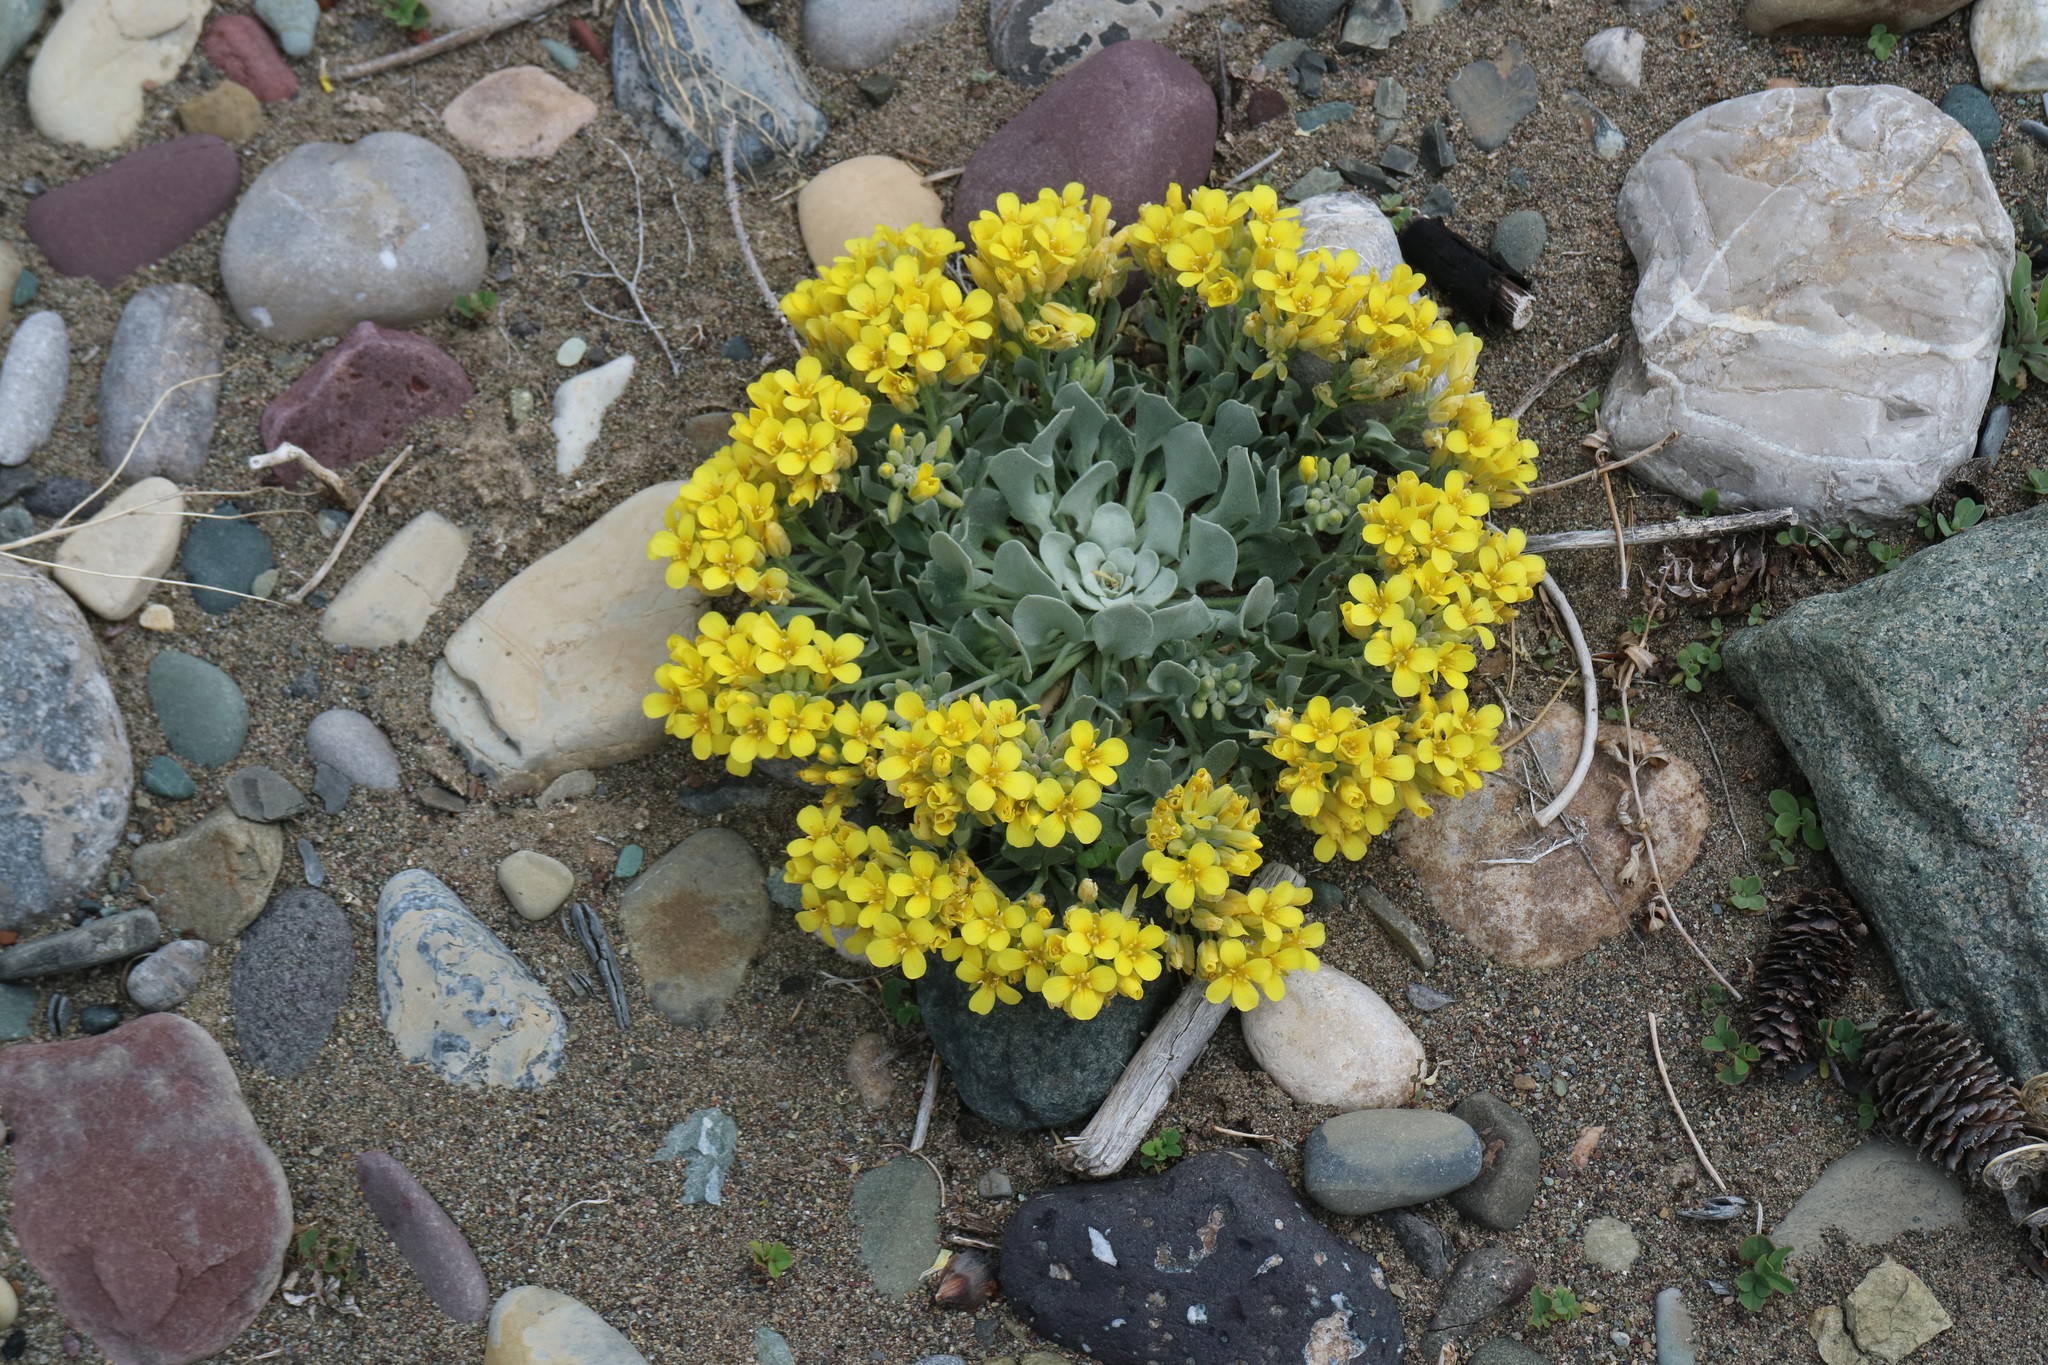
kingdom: Plantae
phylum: Tracheophyta
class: Magnoliopsida
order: Brassicales
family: Brassicaceae
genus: Physaria
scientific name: Physaria didymocarpa
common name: Common twinpod
